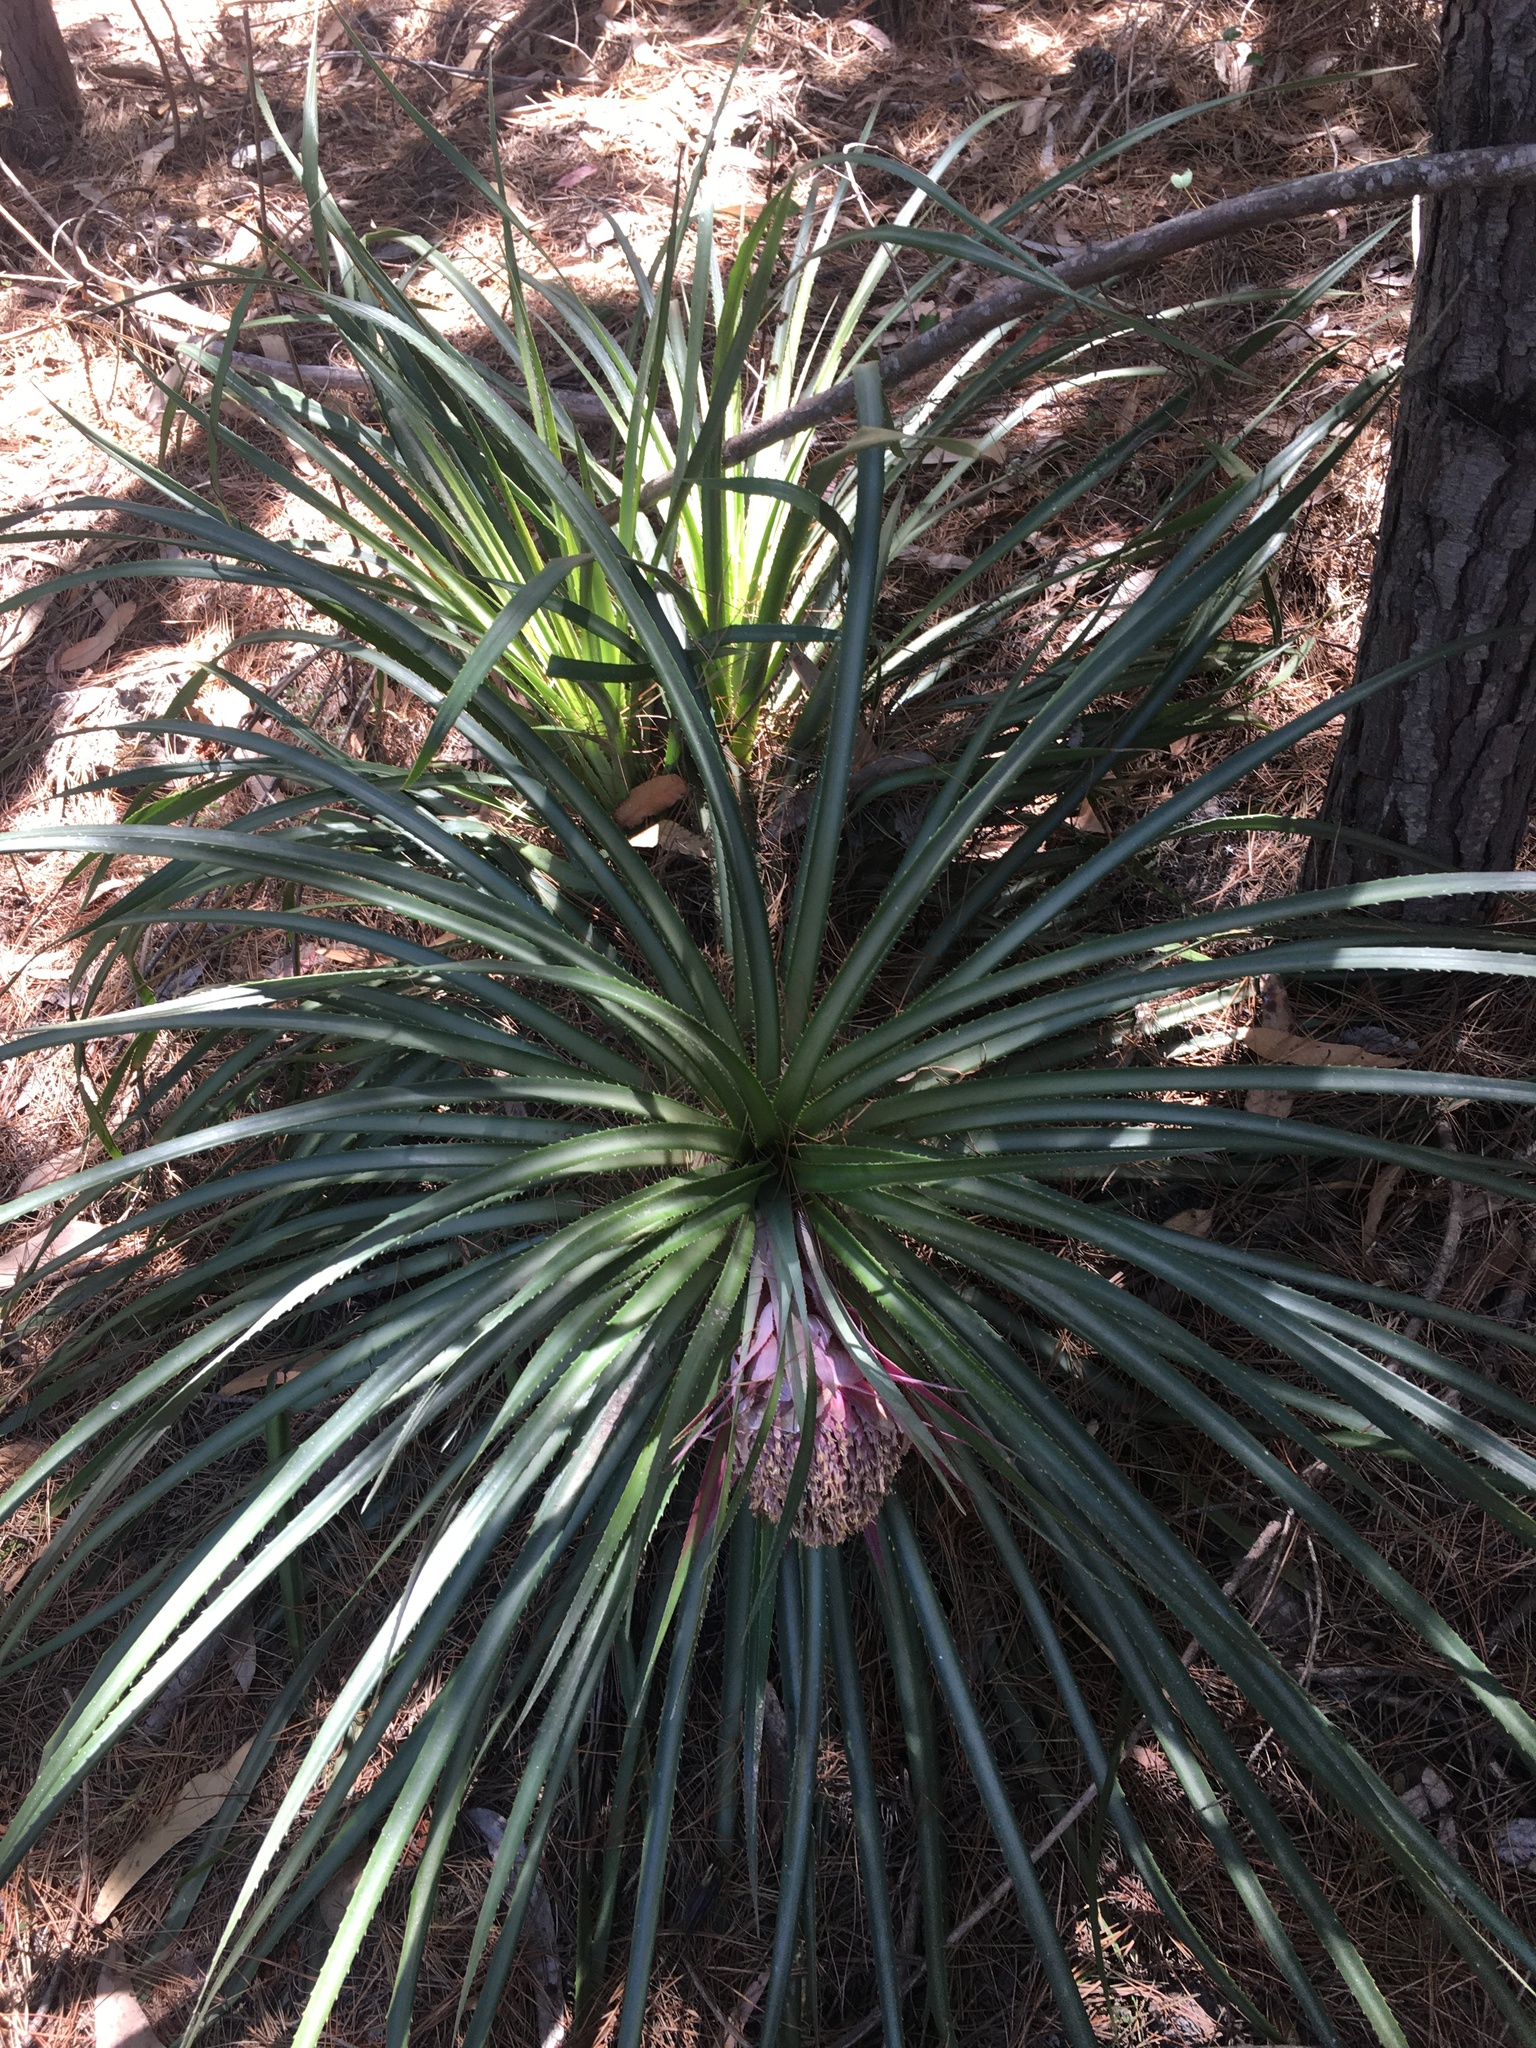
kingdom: Plantae
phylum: Tracheophyta
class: Liliopsida
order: Poales
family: Bromeliaceae
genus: Ochagavia
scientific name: Ochagavia carnea
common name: Tresco rhodostachys
